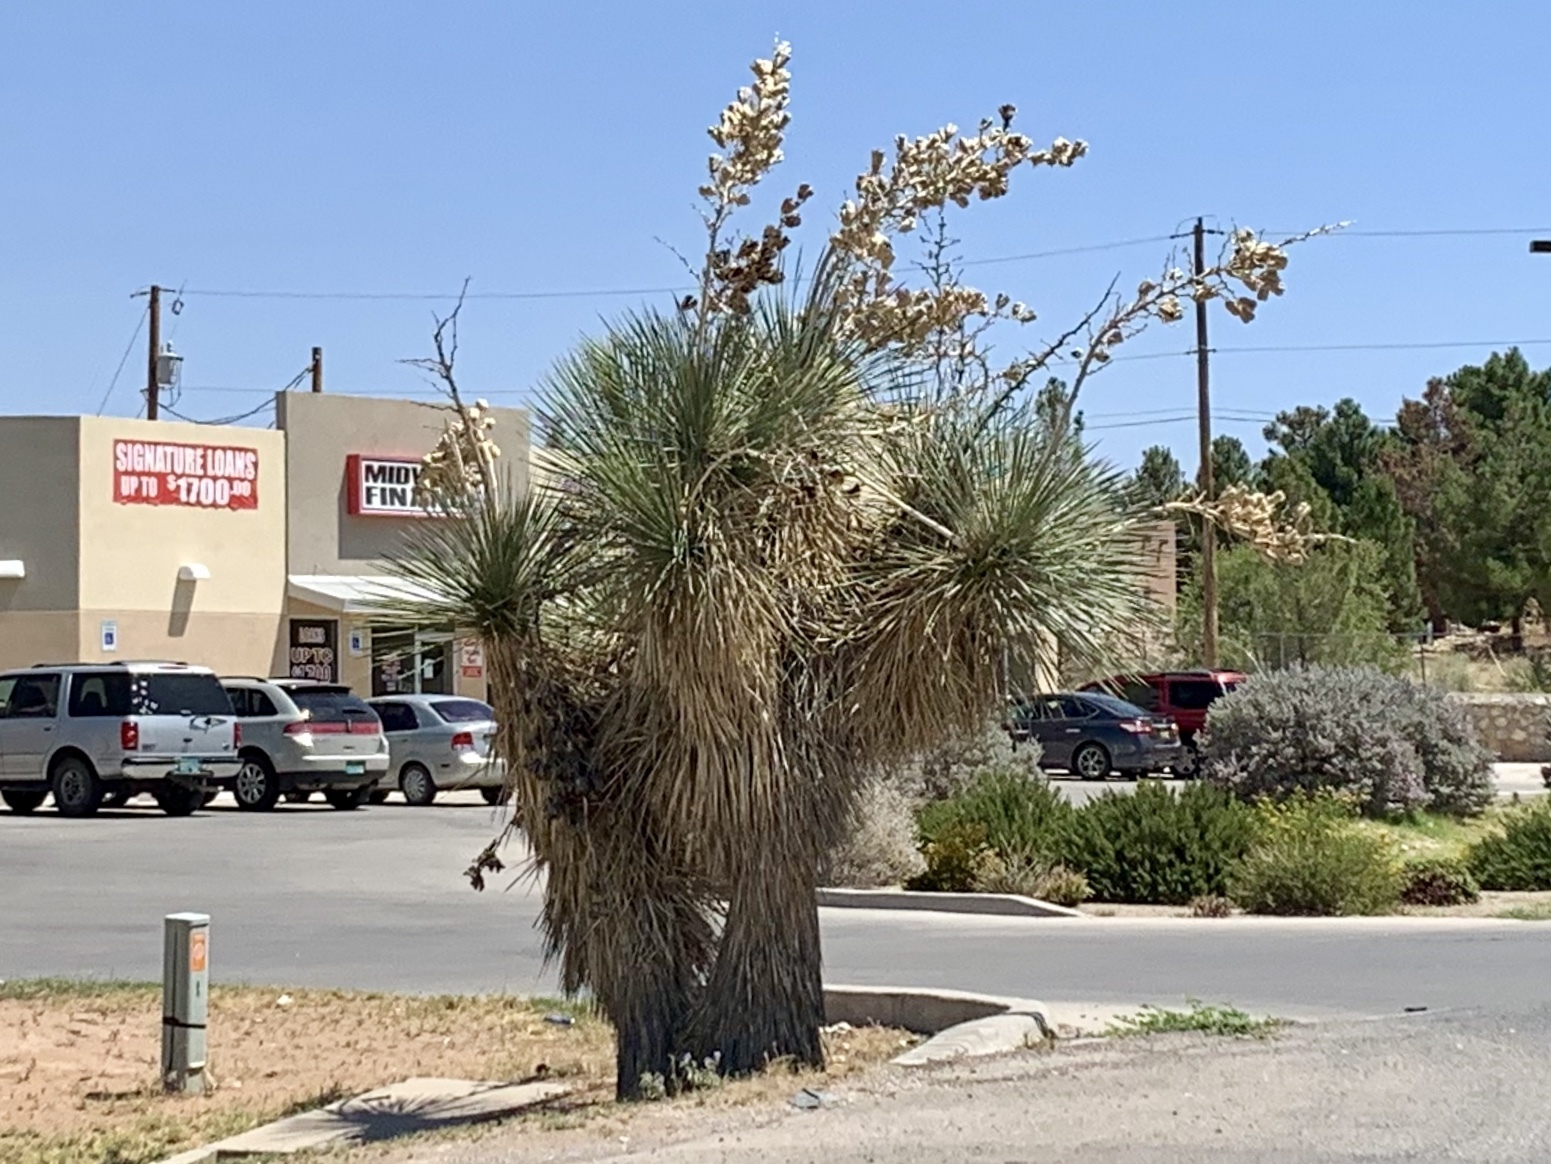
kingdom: Plantae
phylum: Tracheophyta
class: Liliopsida
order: Asparagales
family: Asparagaceae
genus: Yucca
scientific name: Yucca elata
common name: Palmella
